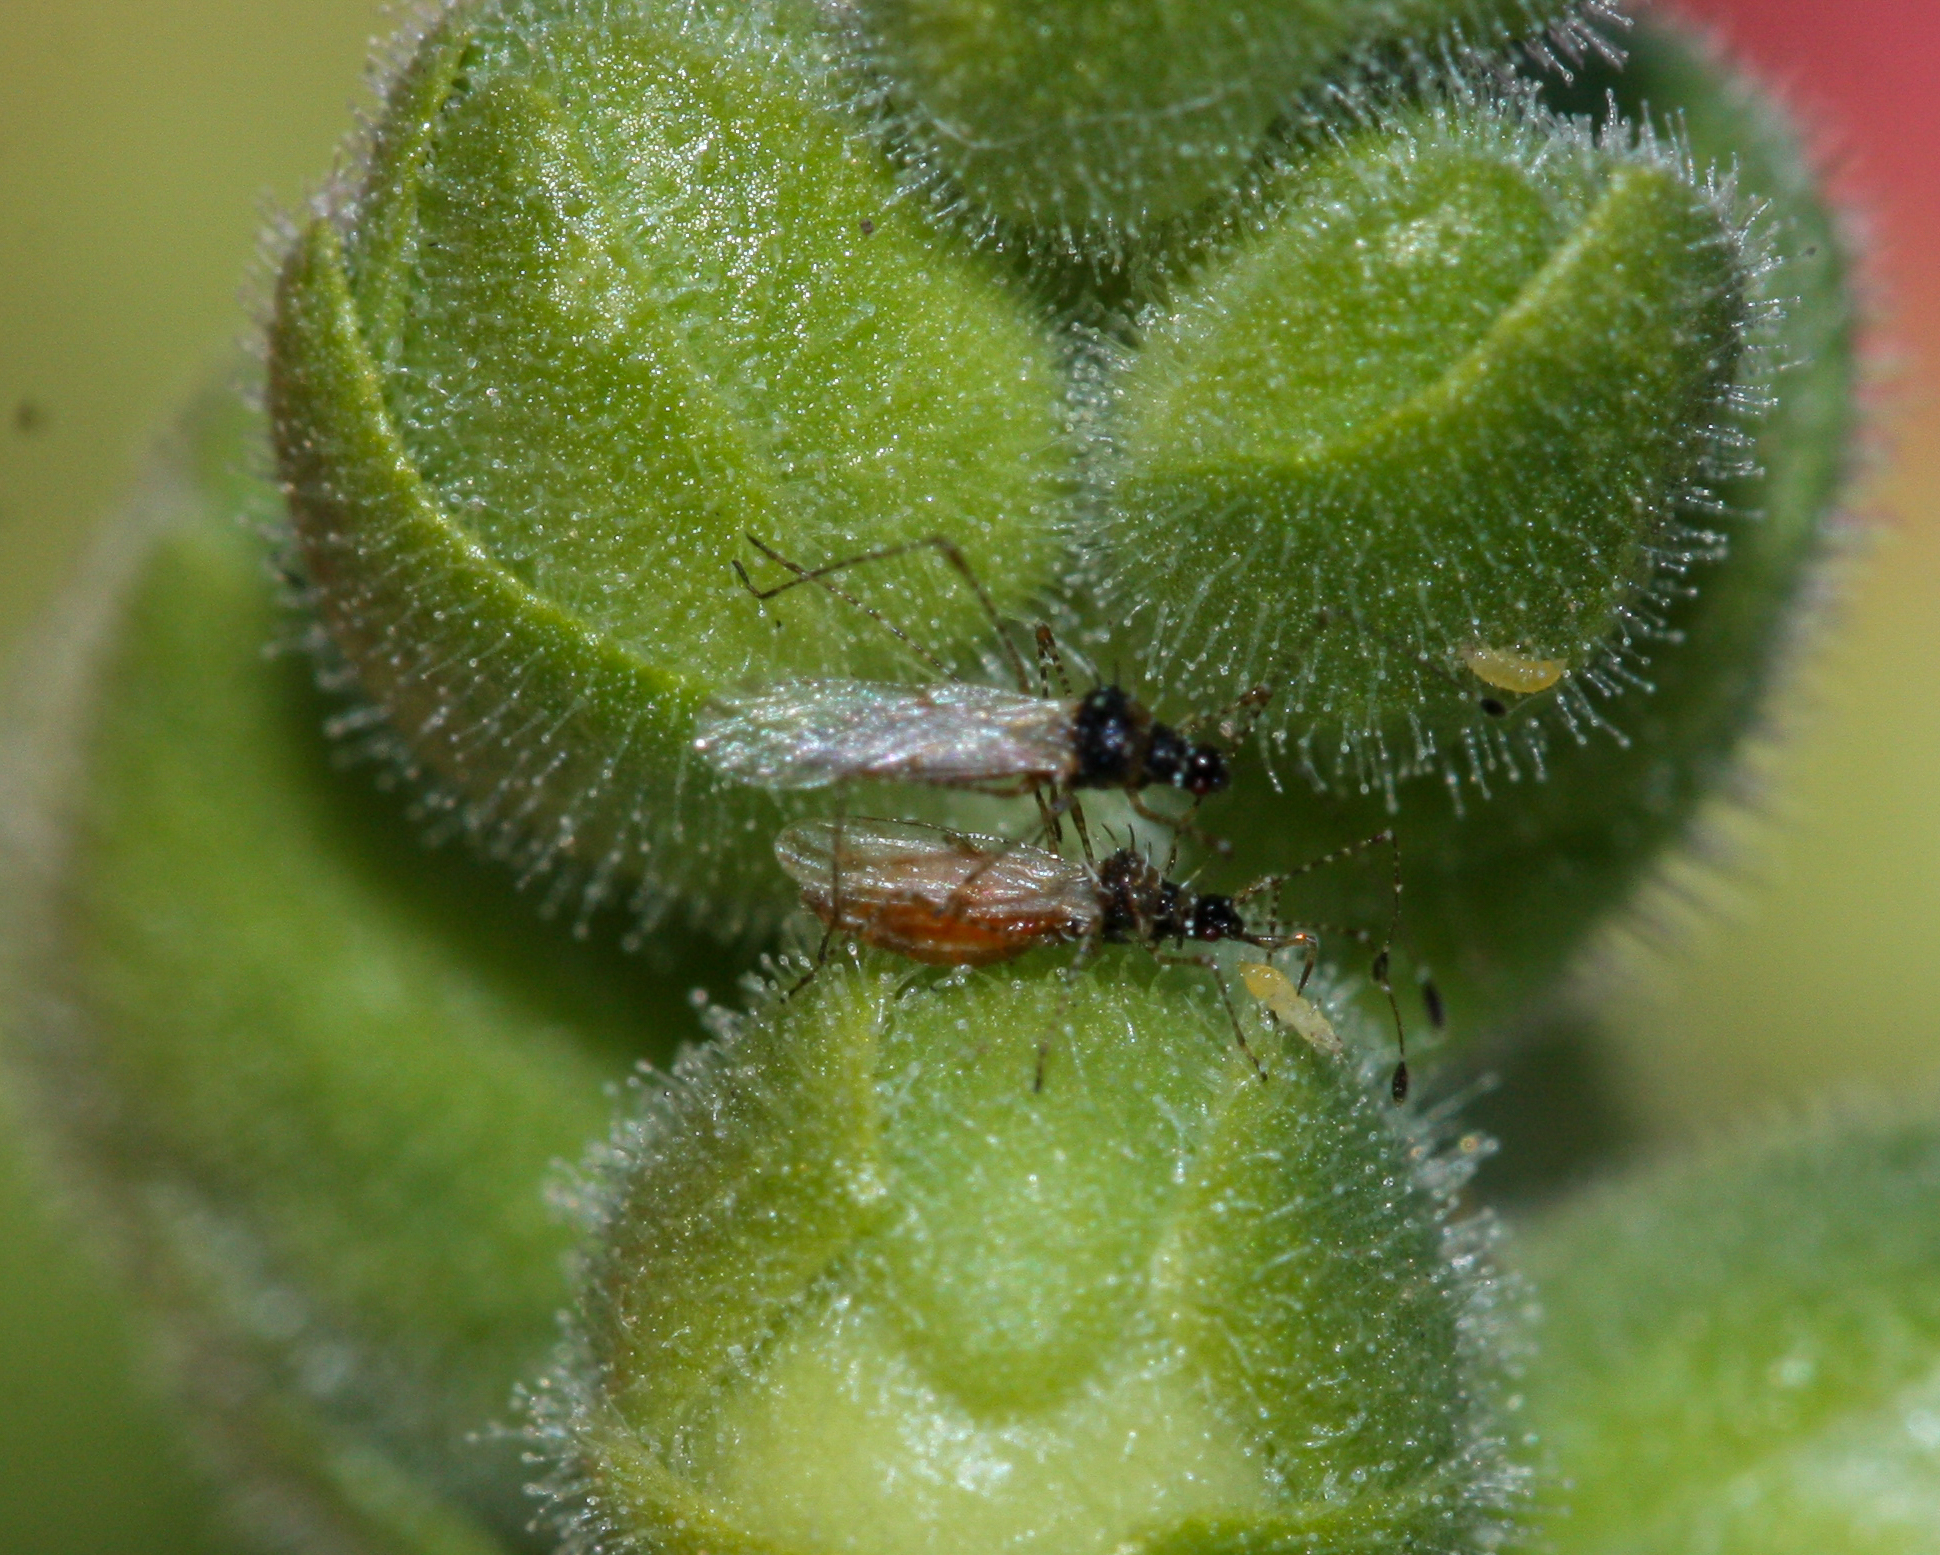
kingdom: Animalia
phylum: Arthropoda
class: Insecta
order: Hemiptera
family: Berytidae
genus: Pronotacantha
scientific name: Pronotacantha annulata
